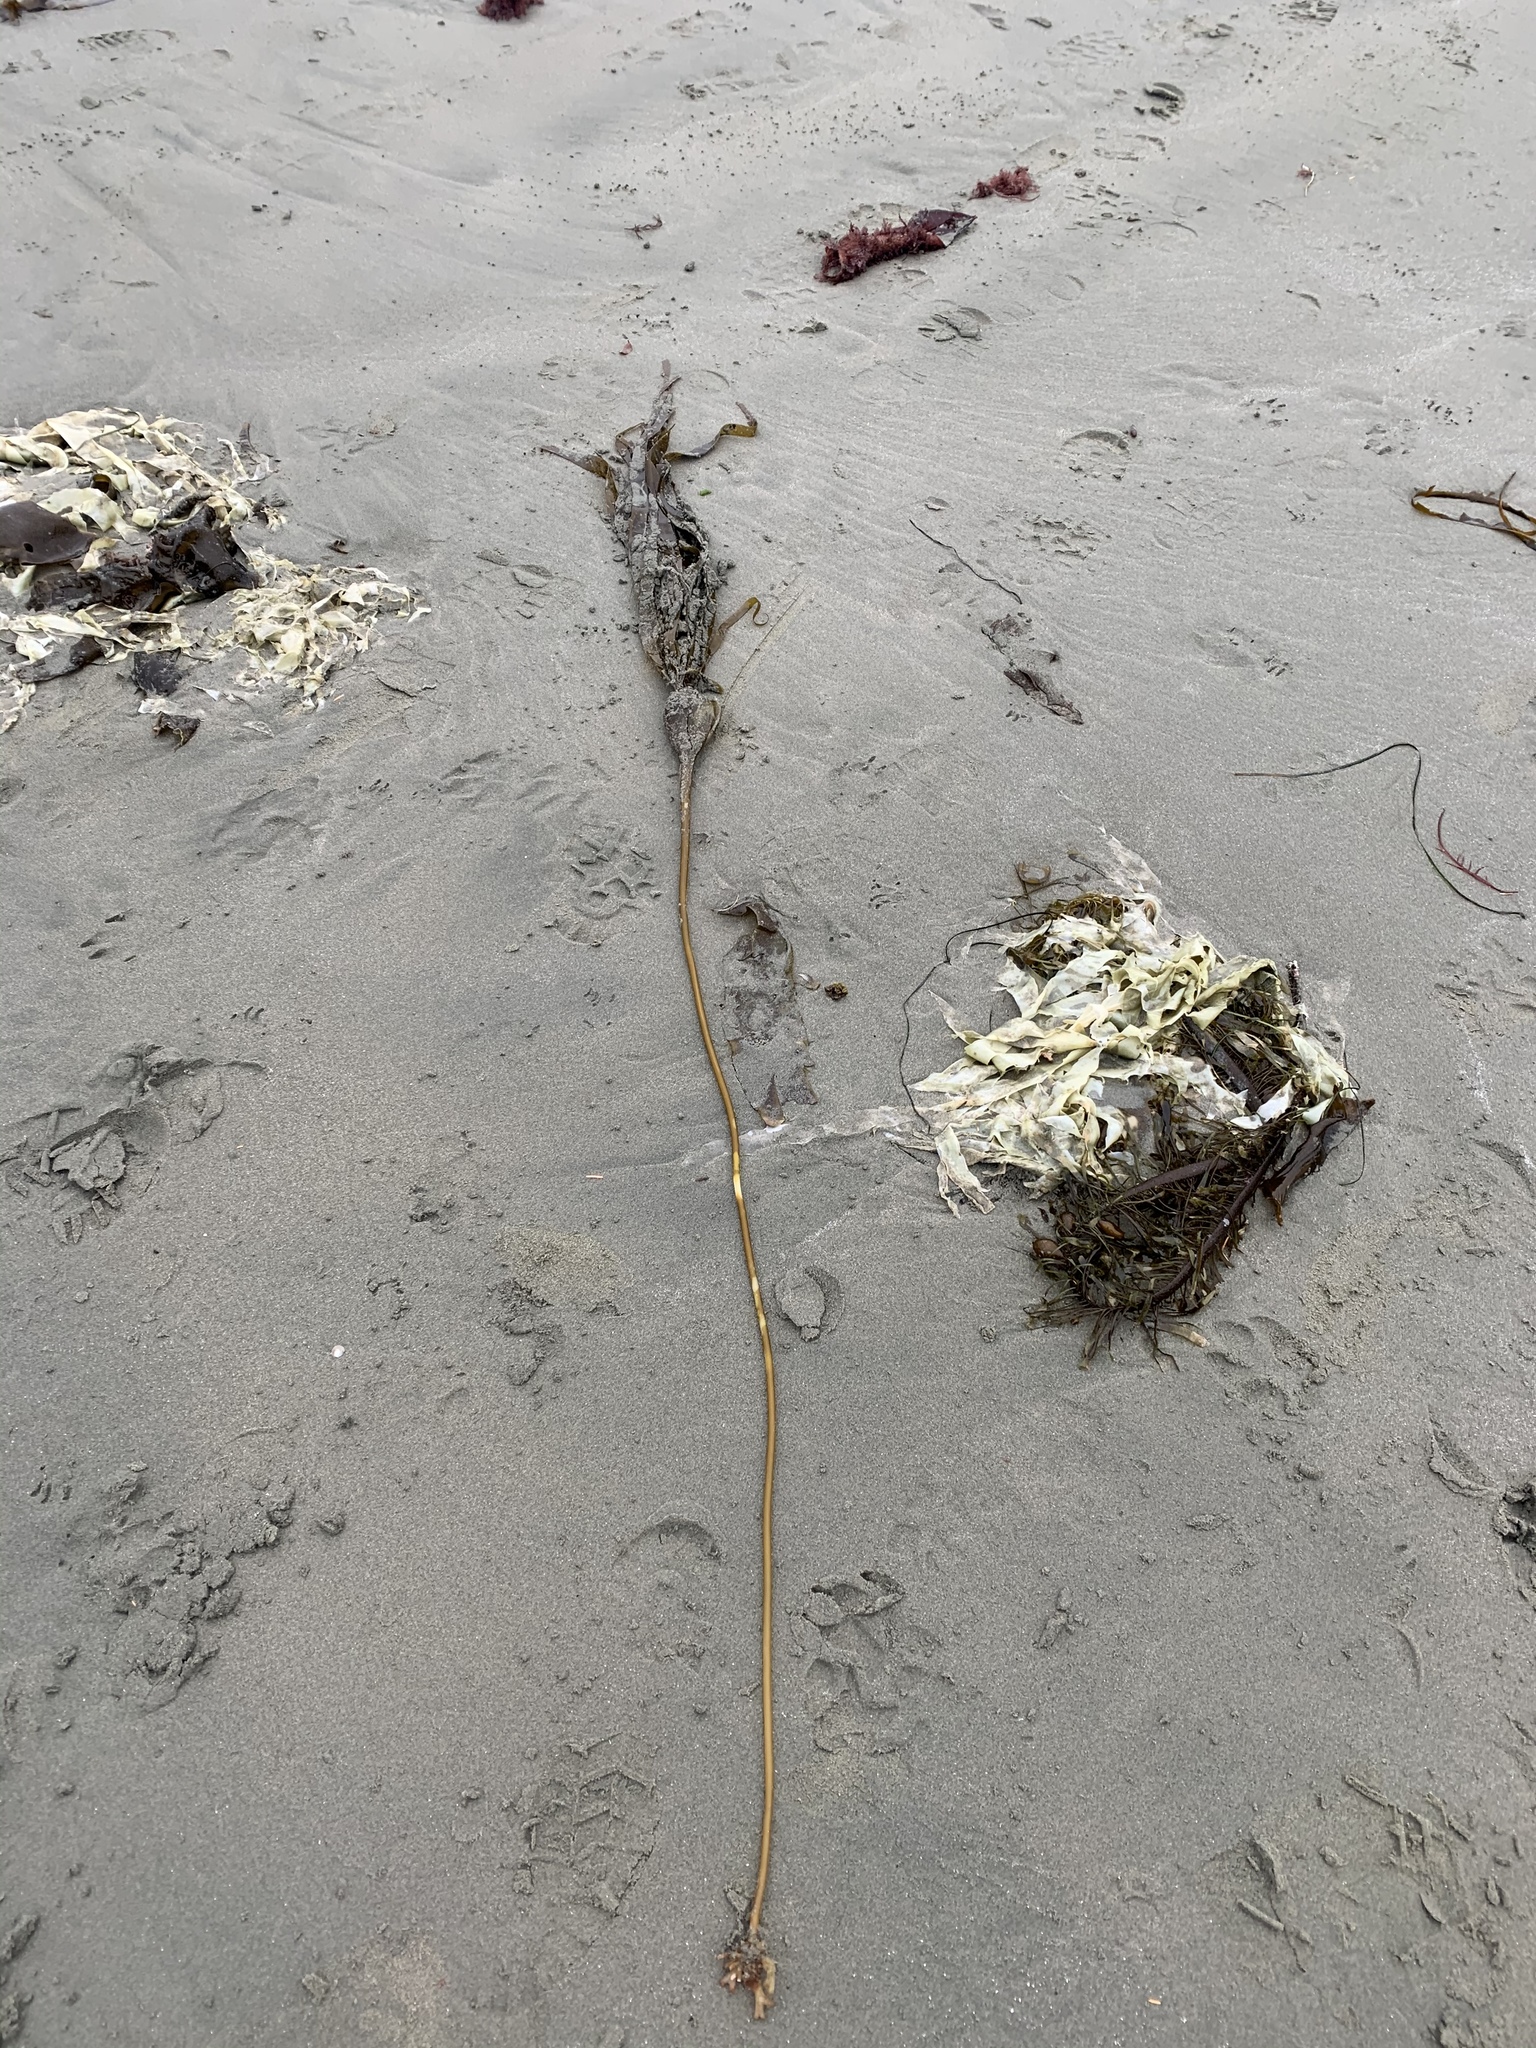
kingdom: Chromista
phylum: Ochrophyta
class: Phaeophyceae
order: Laminariales
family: Laminariaceae
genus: Nereocystis
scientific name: Nereocystis luetkeana
